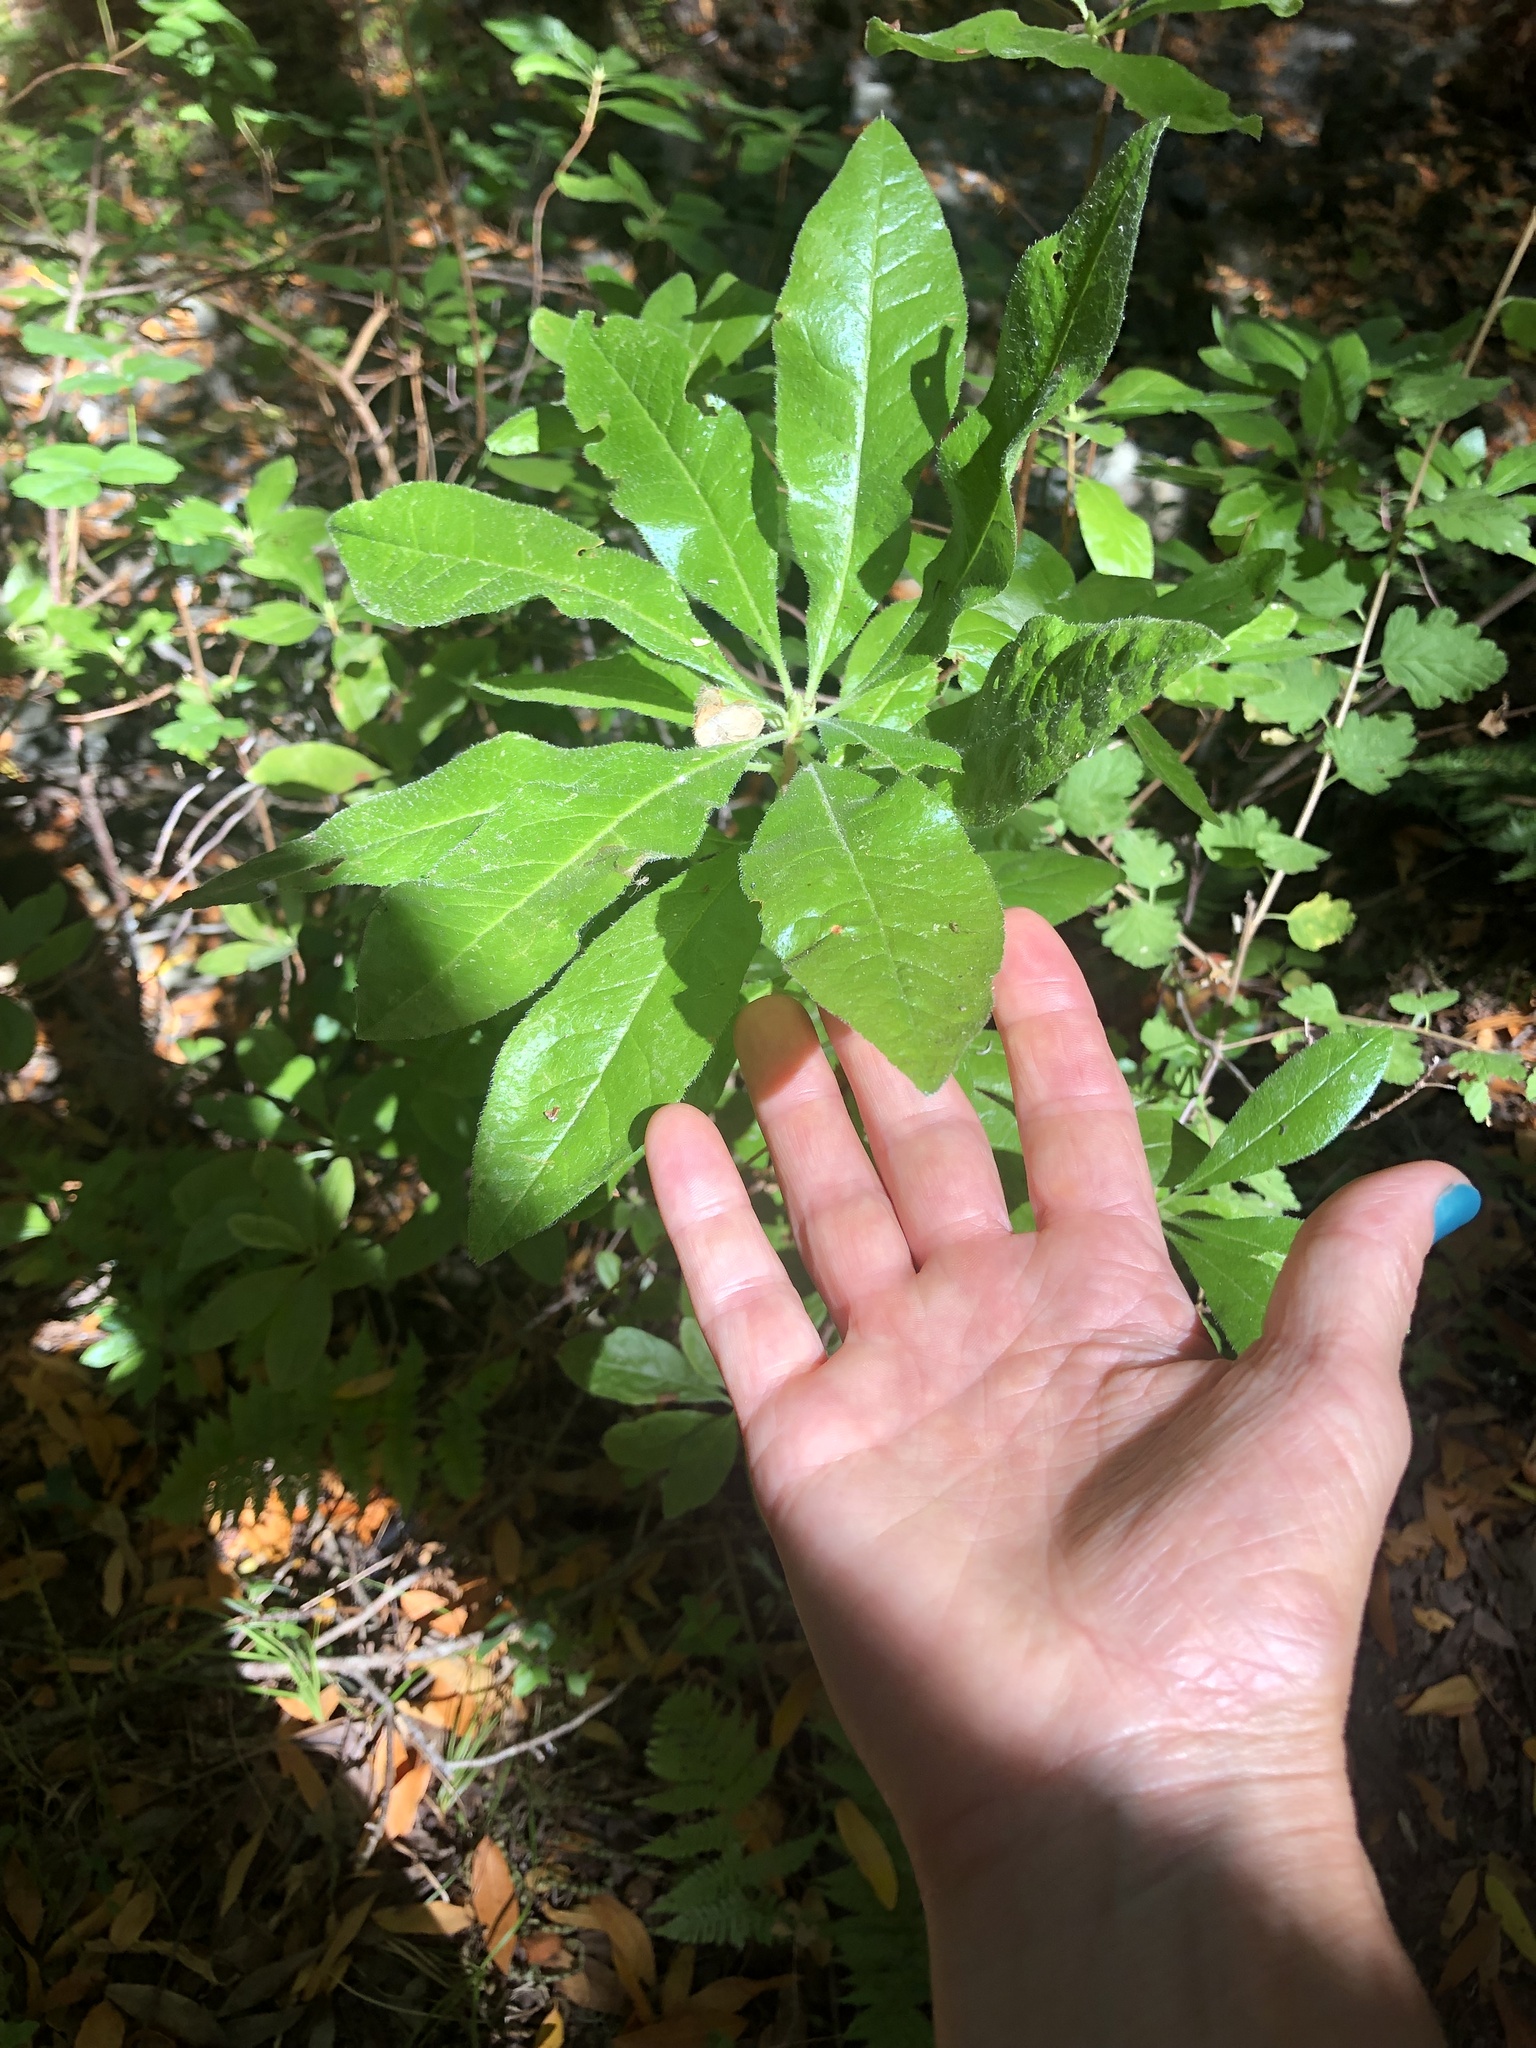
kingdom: Plantae
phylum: Tracheophyta
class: Magnoliopsida
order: Ericales
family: Ericaceae
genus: Rhododendron
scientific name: Rhododendron occidentale
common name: Western azalea
